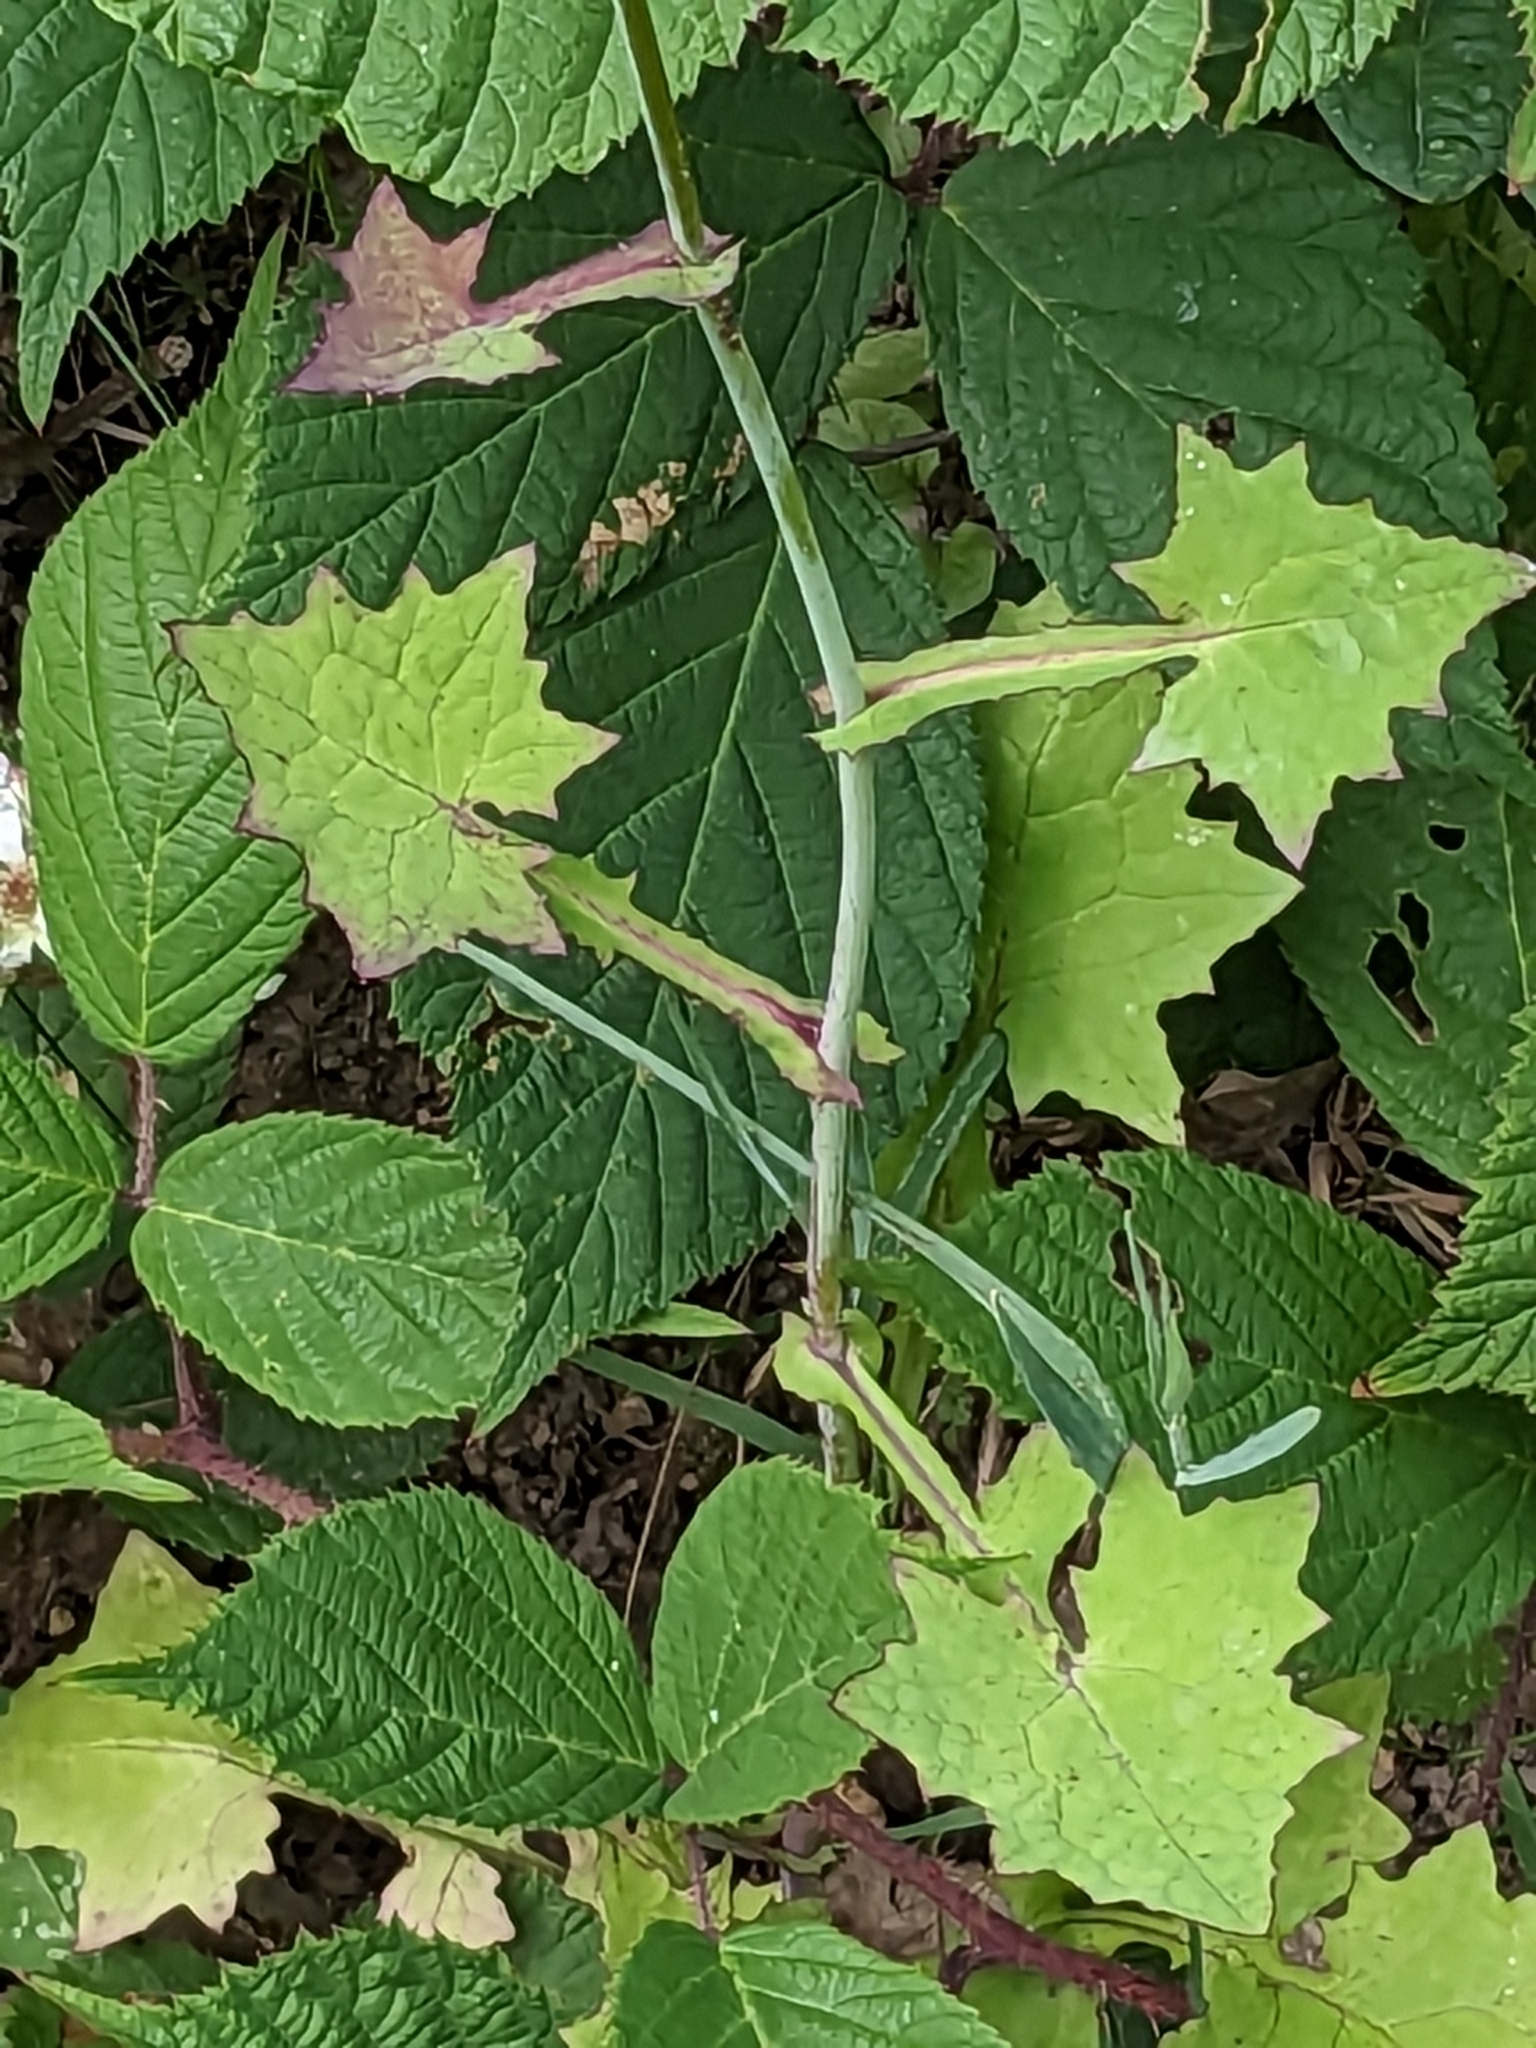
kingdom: Plantae
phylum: Tracheophyta
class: Magnoliopsida
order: Asterales
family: Asteraceae
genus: Mycelis
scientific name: Mycelis muralis
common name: Wall lettuce
